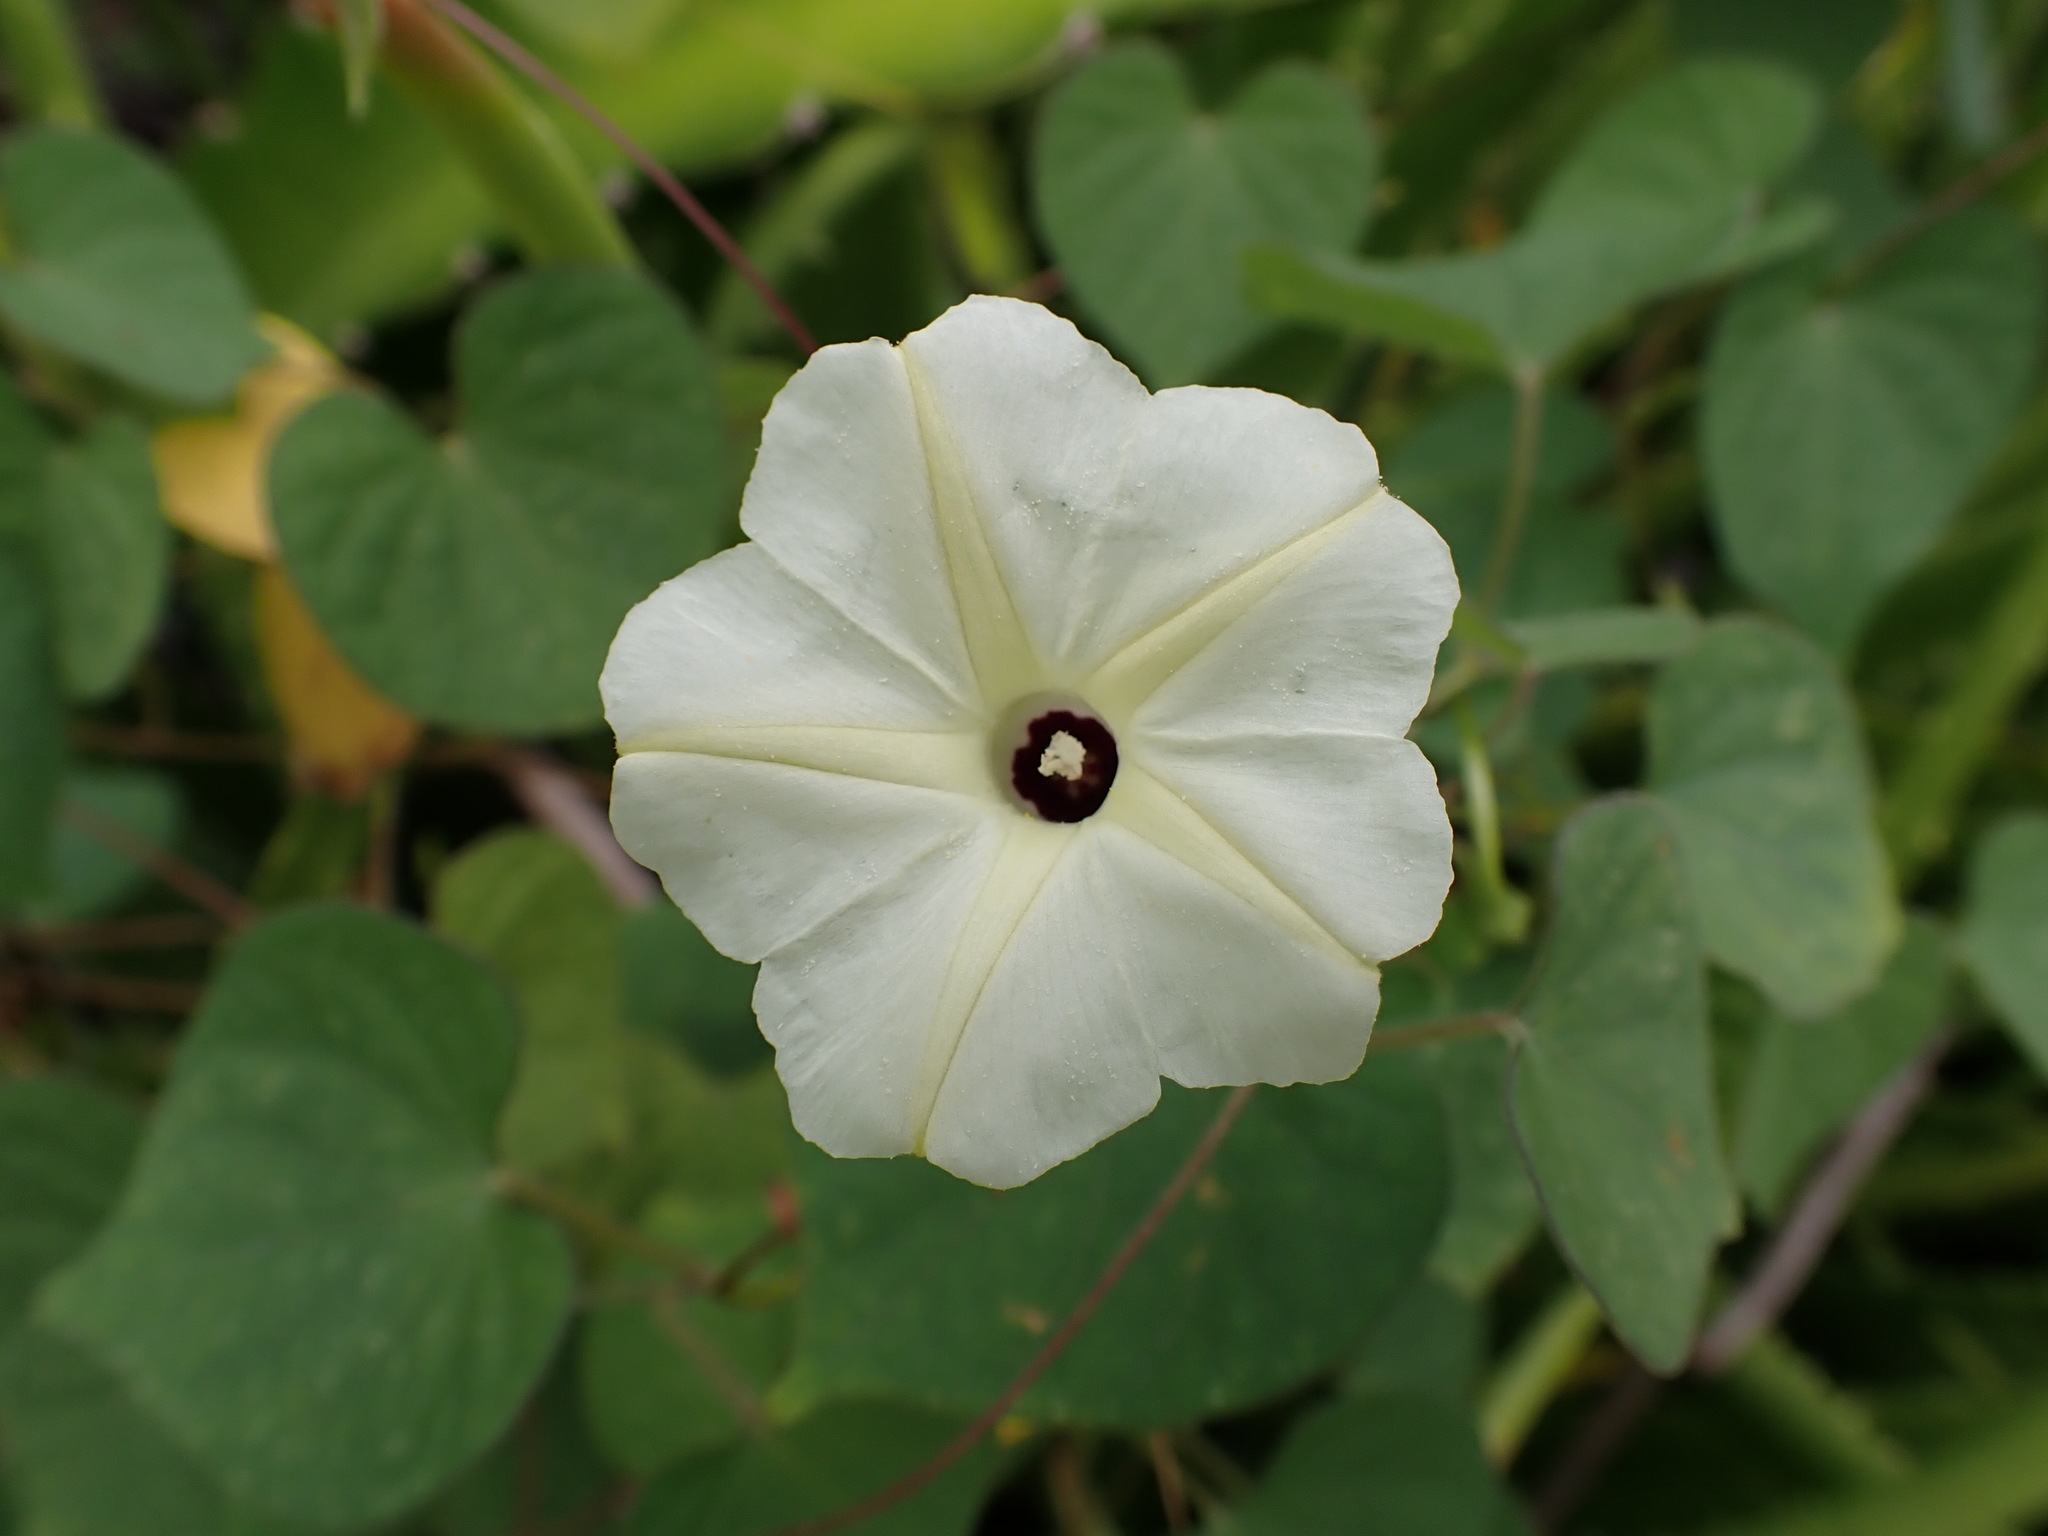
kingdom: Plantae
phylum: Tracheophyta
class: Magnoliopsida
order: Solanales
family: Convolvulaceae
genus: Ipomoea
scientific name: Ipomoea obscura
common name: Obscure morning-glory
